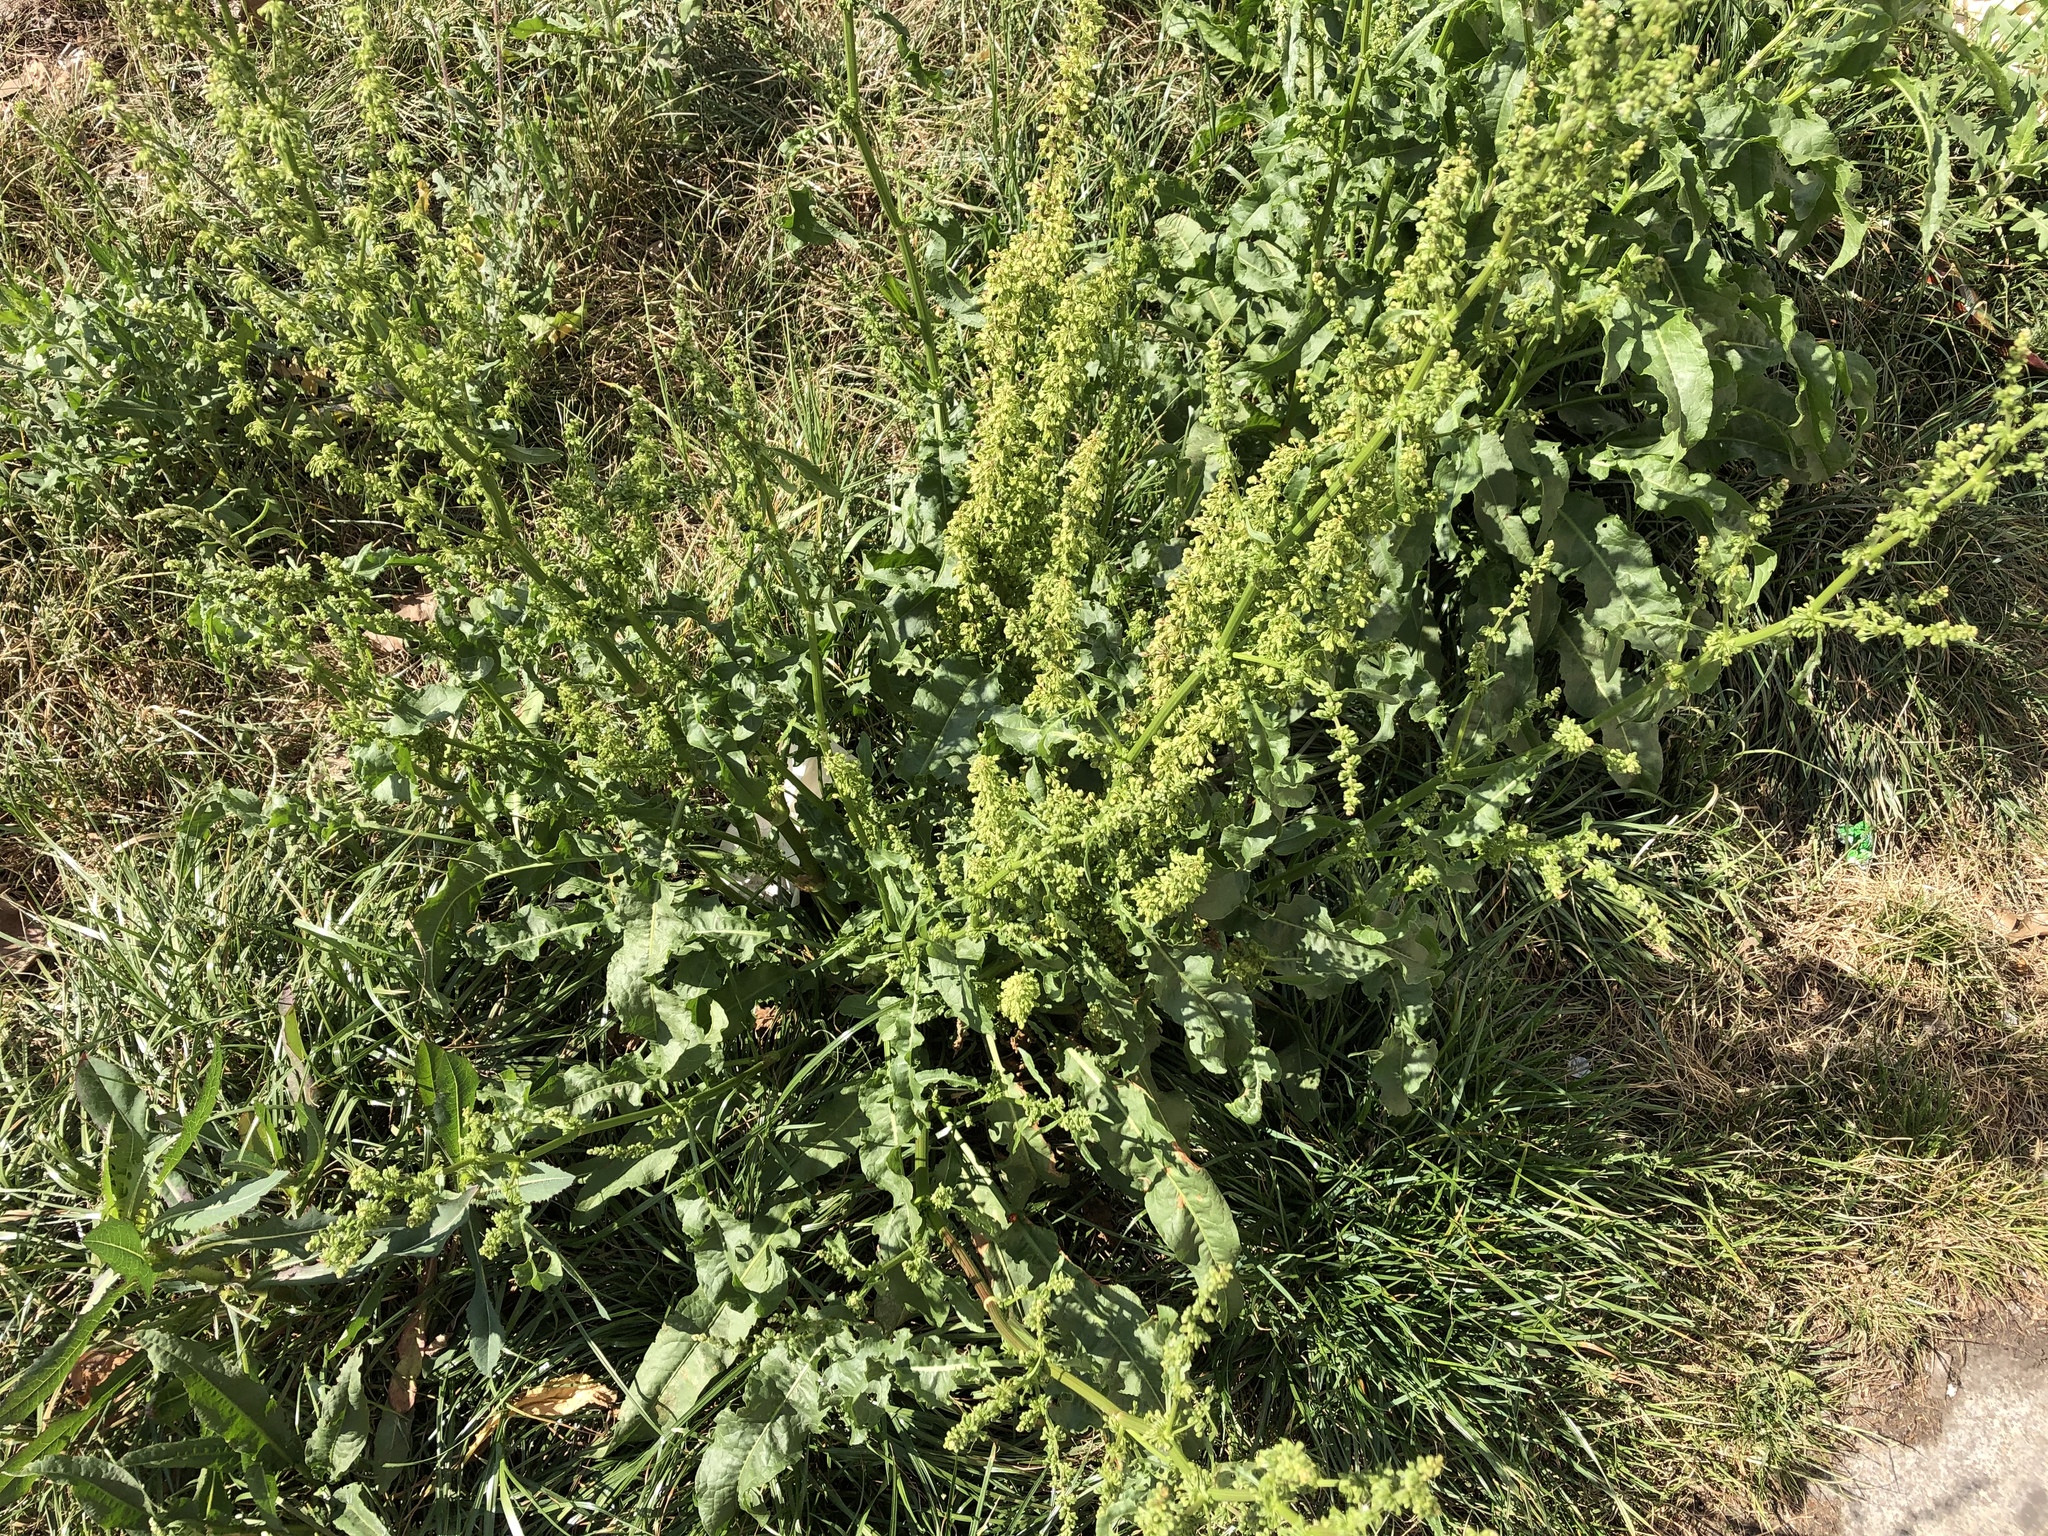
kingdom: Plantae
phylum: Tracheophyta
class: Magnoliopsida
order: Caryophyllales
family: Polygonaceae
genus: Rumex
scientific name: Rumex crispus
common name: Curled dock
